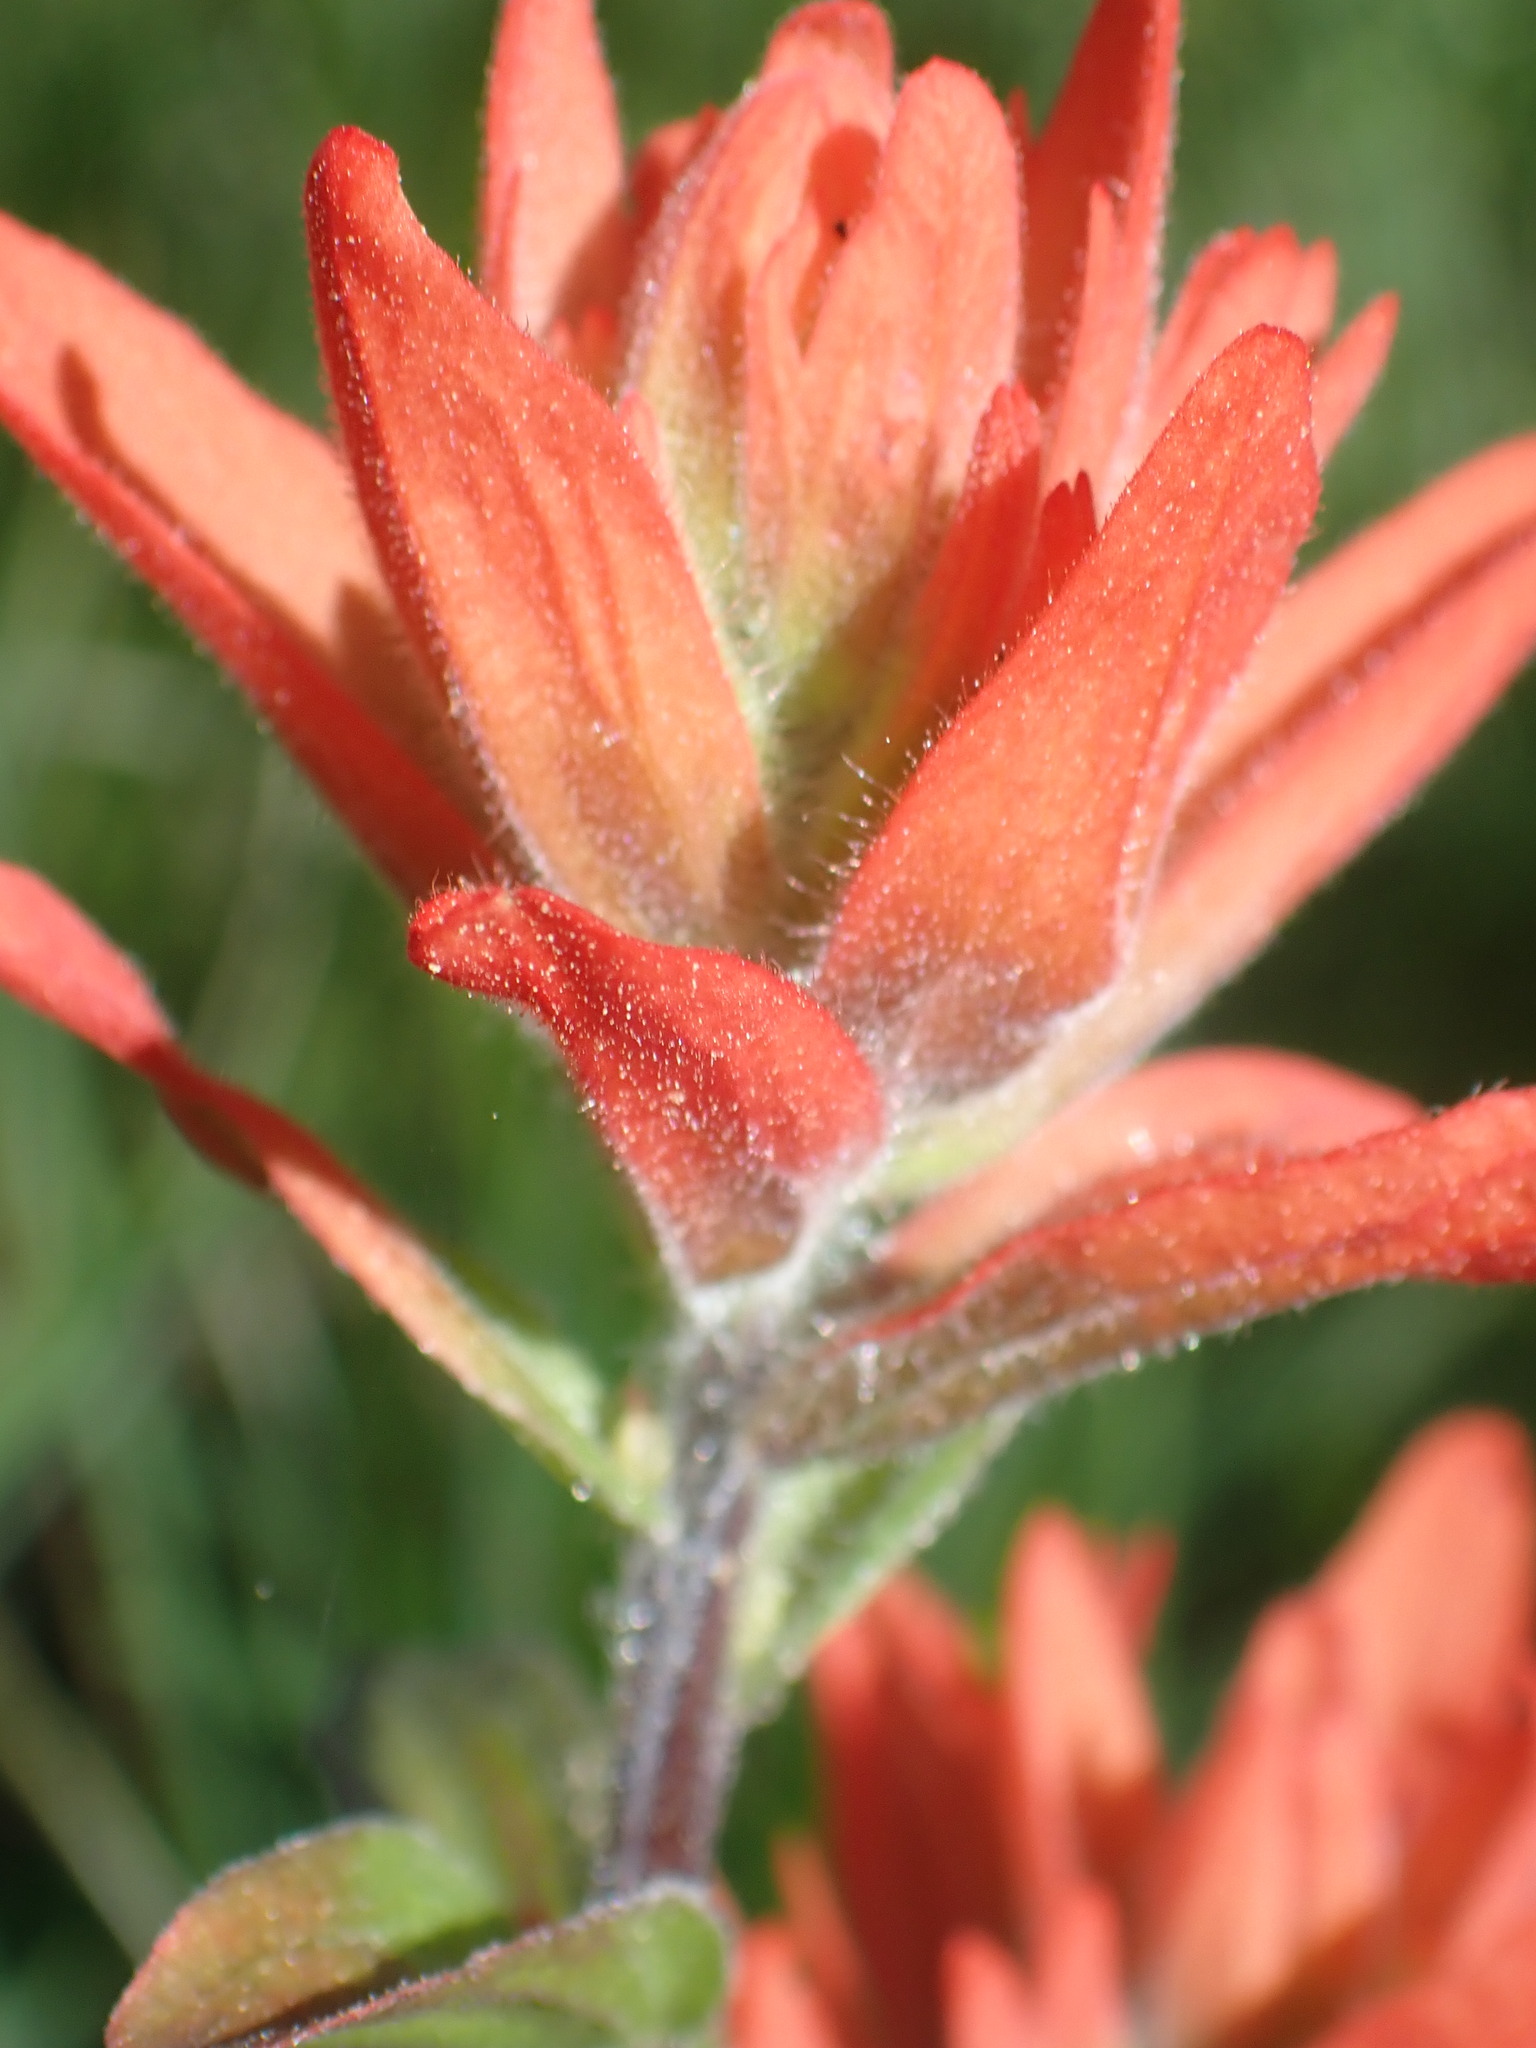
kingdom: Plantae
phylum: Tracheophyta
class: Magnoliopsida
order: Lamiales
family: Orobanchaceae
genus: Castilleja
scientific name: Castilleja miniata
